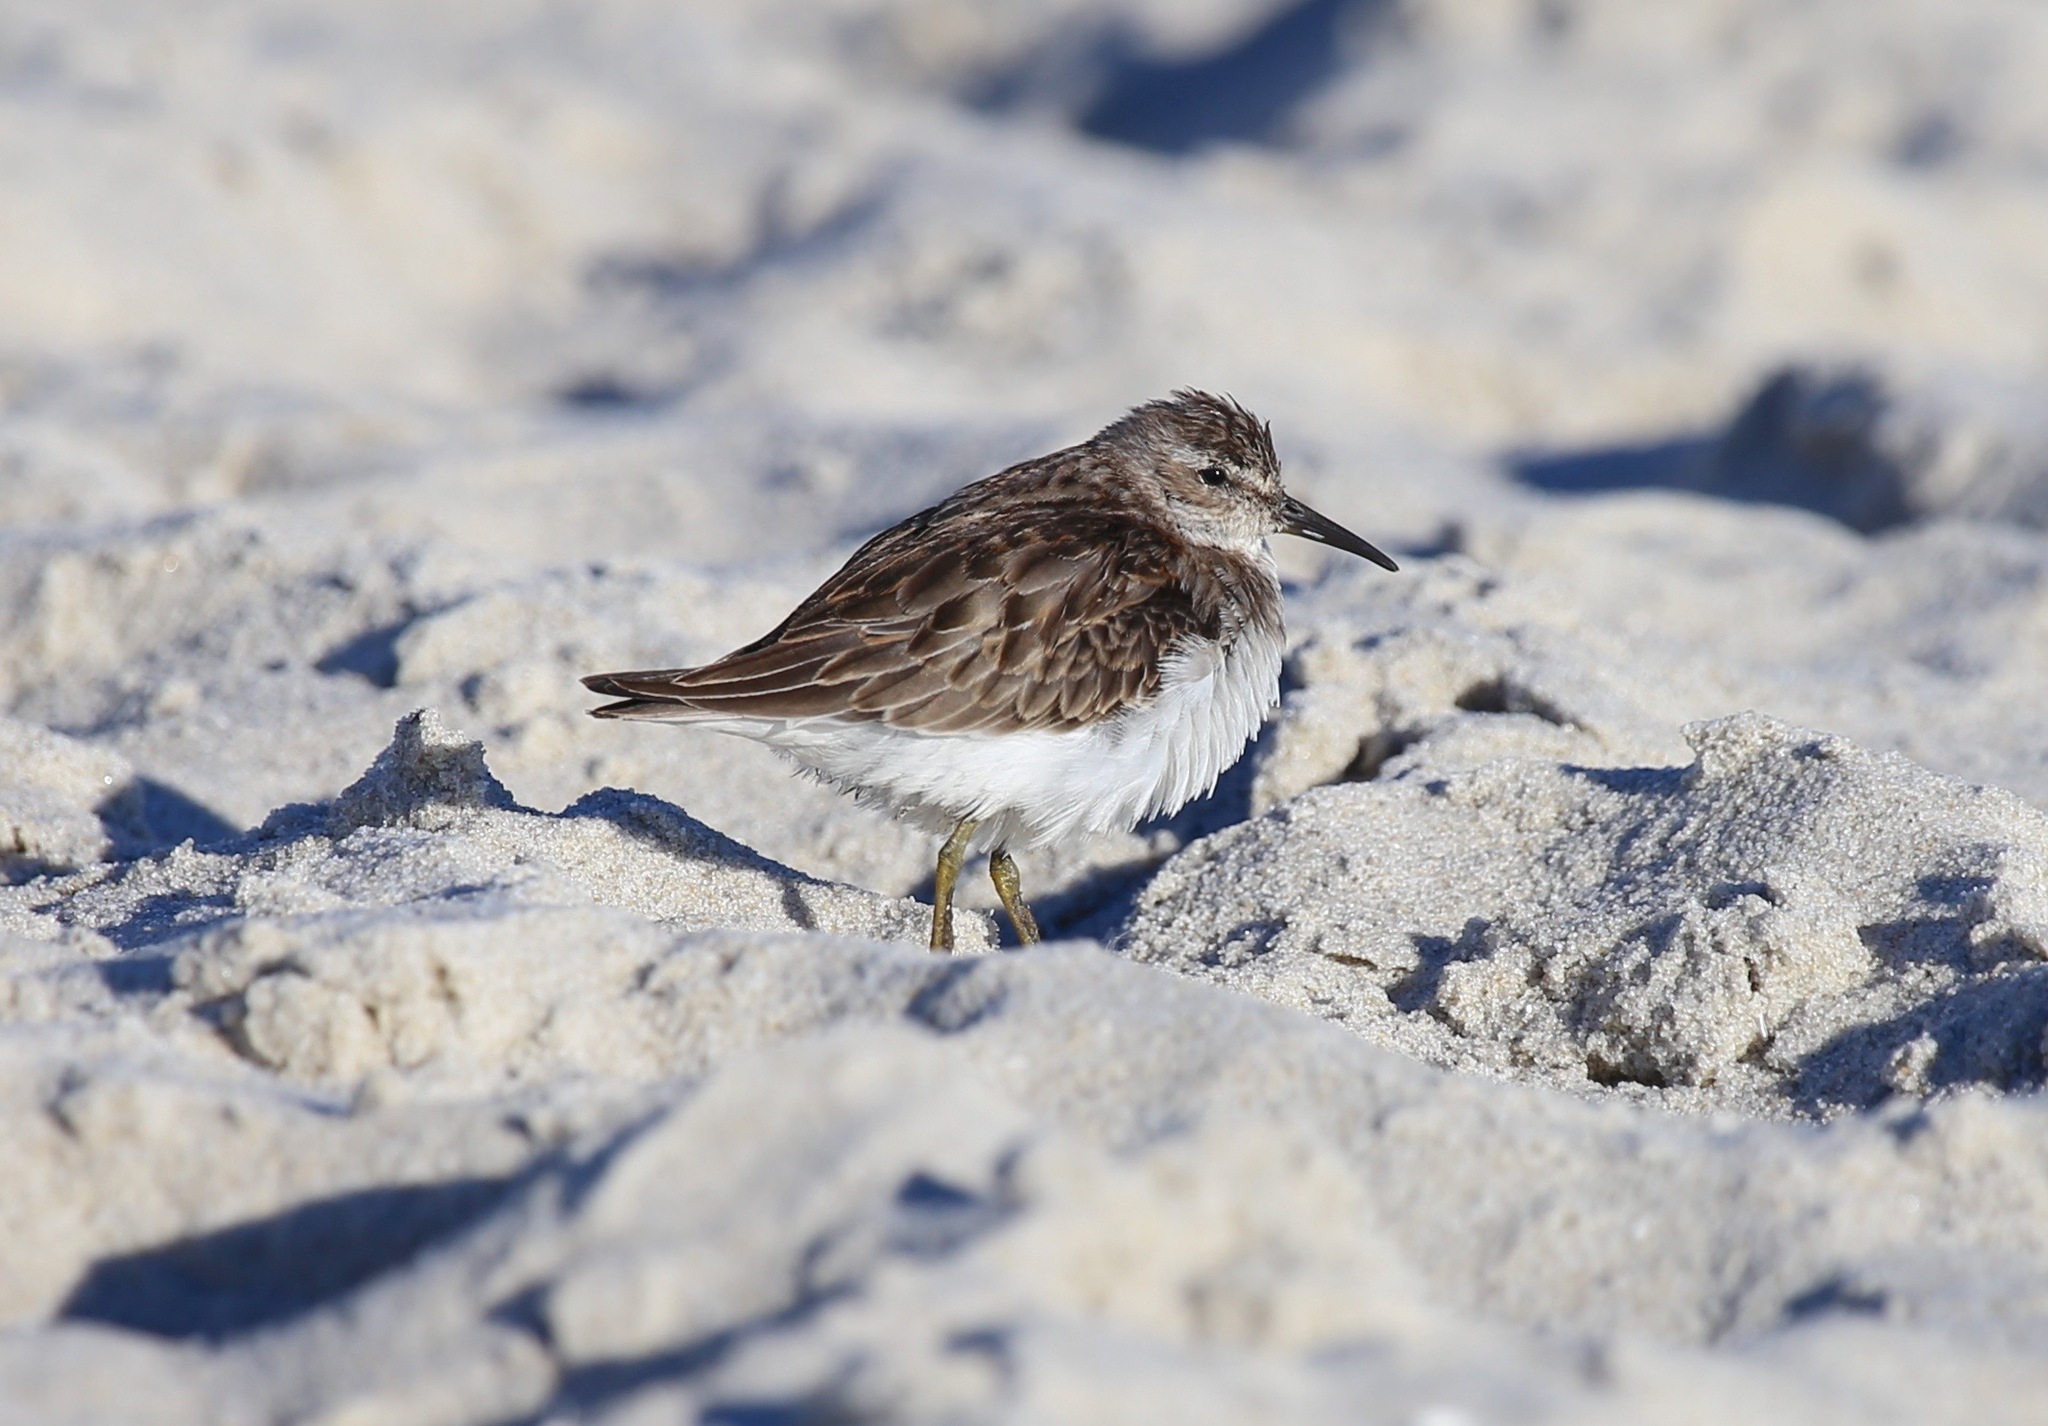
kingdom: Animalia
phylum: Chordata
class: Aves
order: Charadriiformes
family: Scolopacidae
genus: Calidris
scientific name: Calidris minutilla
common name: Least sandpiper
